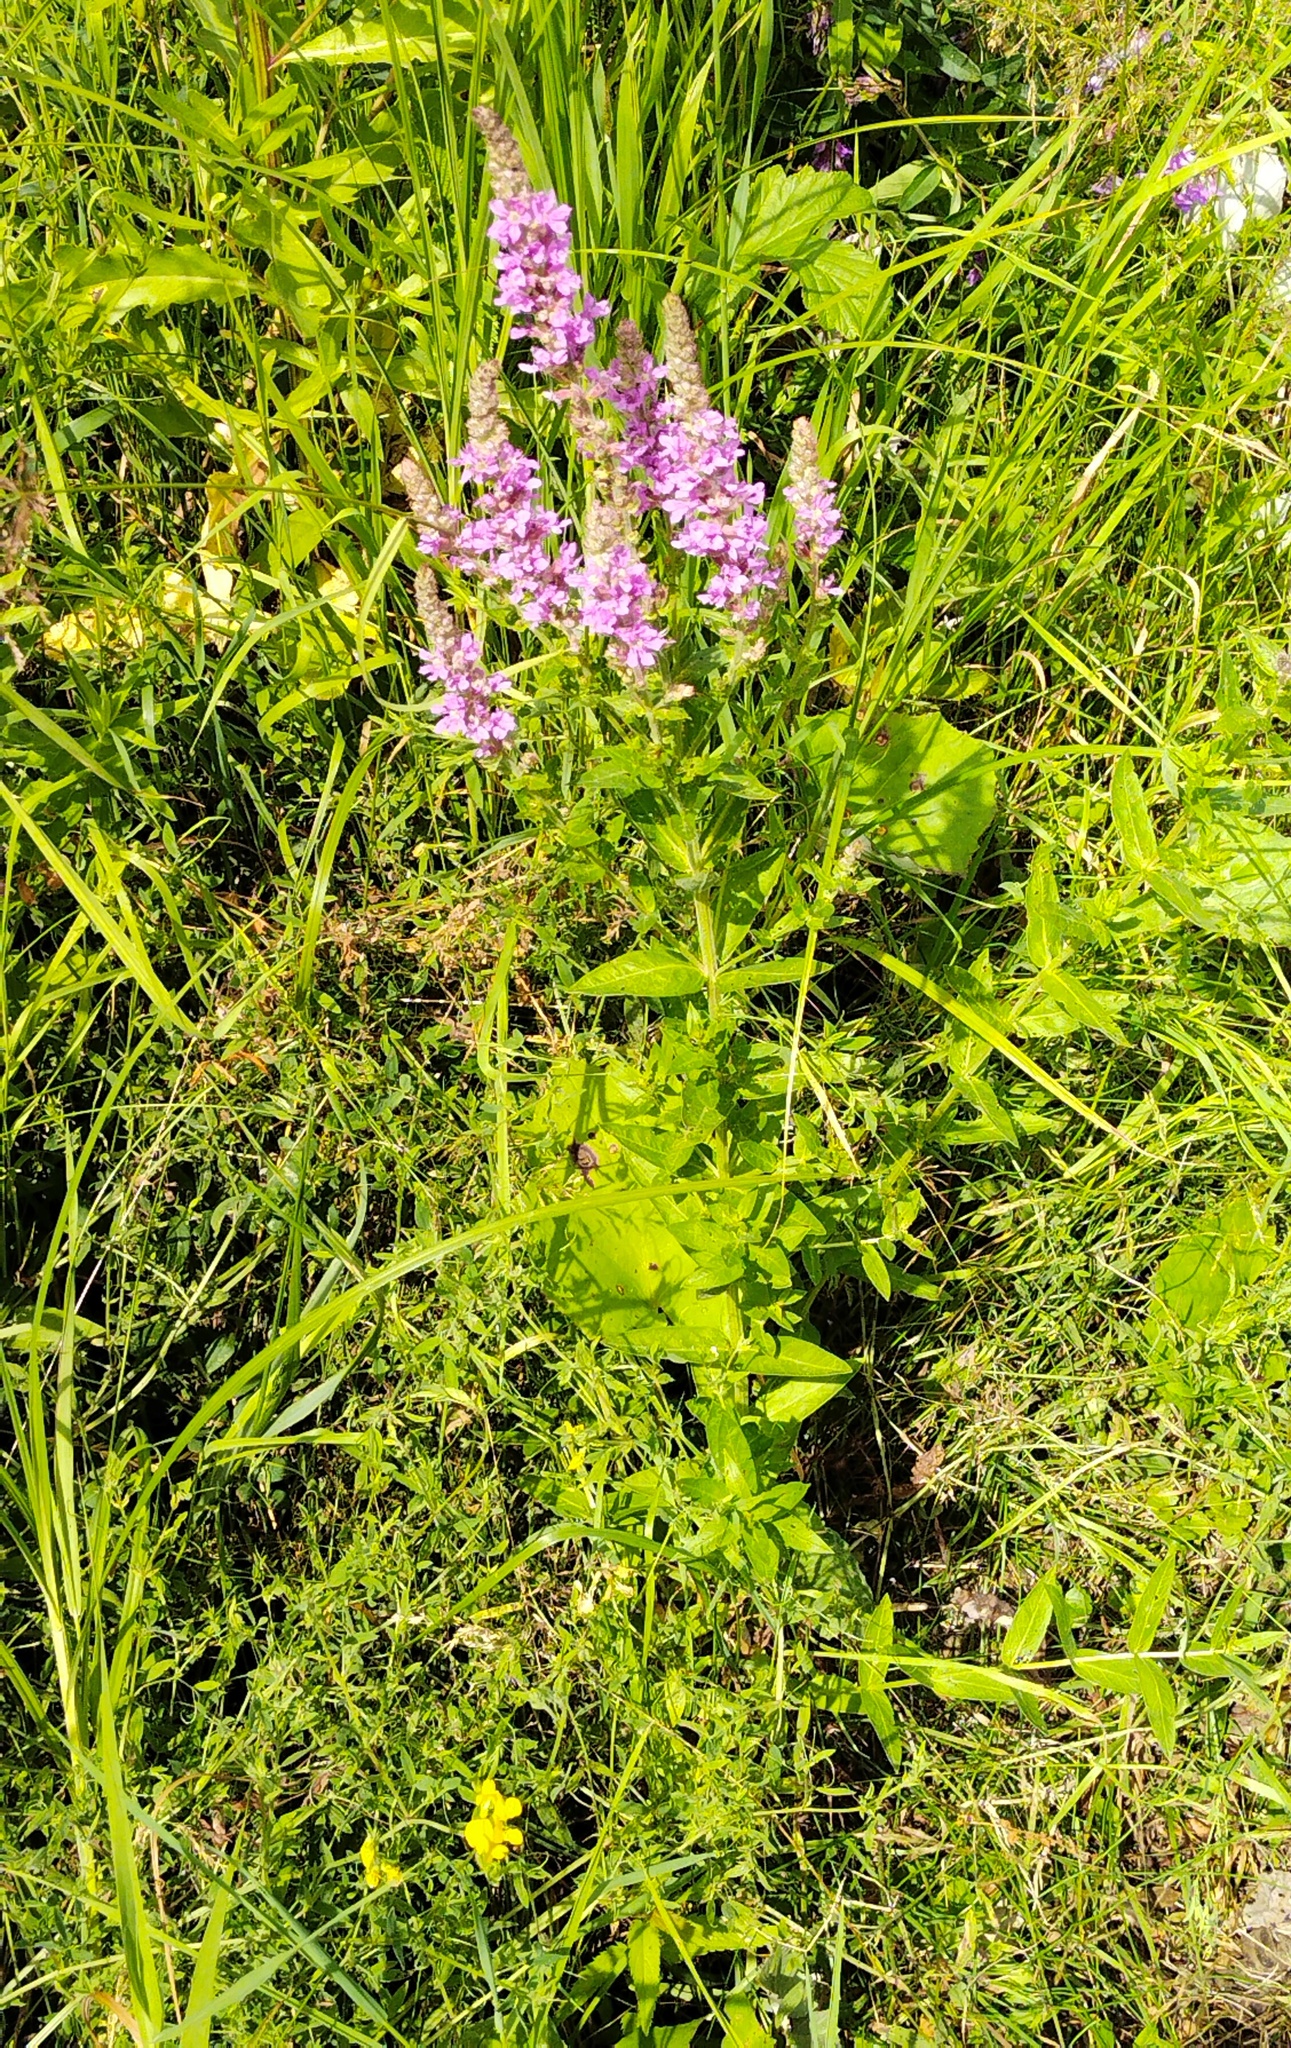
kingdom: Plantae
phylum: Tracheophyta
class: Magnoliopsida
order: Myrtales
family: Lythraceae
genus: Lythrum
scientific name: Lythrum salicaria
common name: Purple loosestrife
